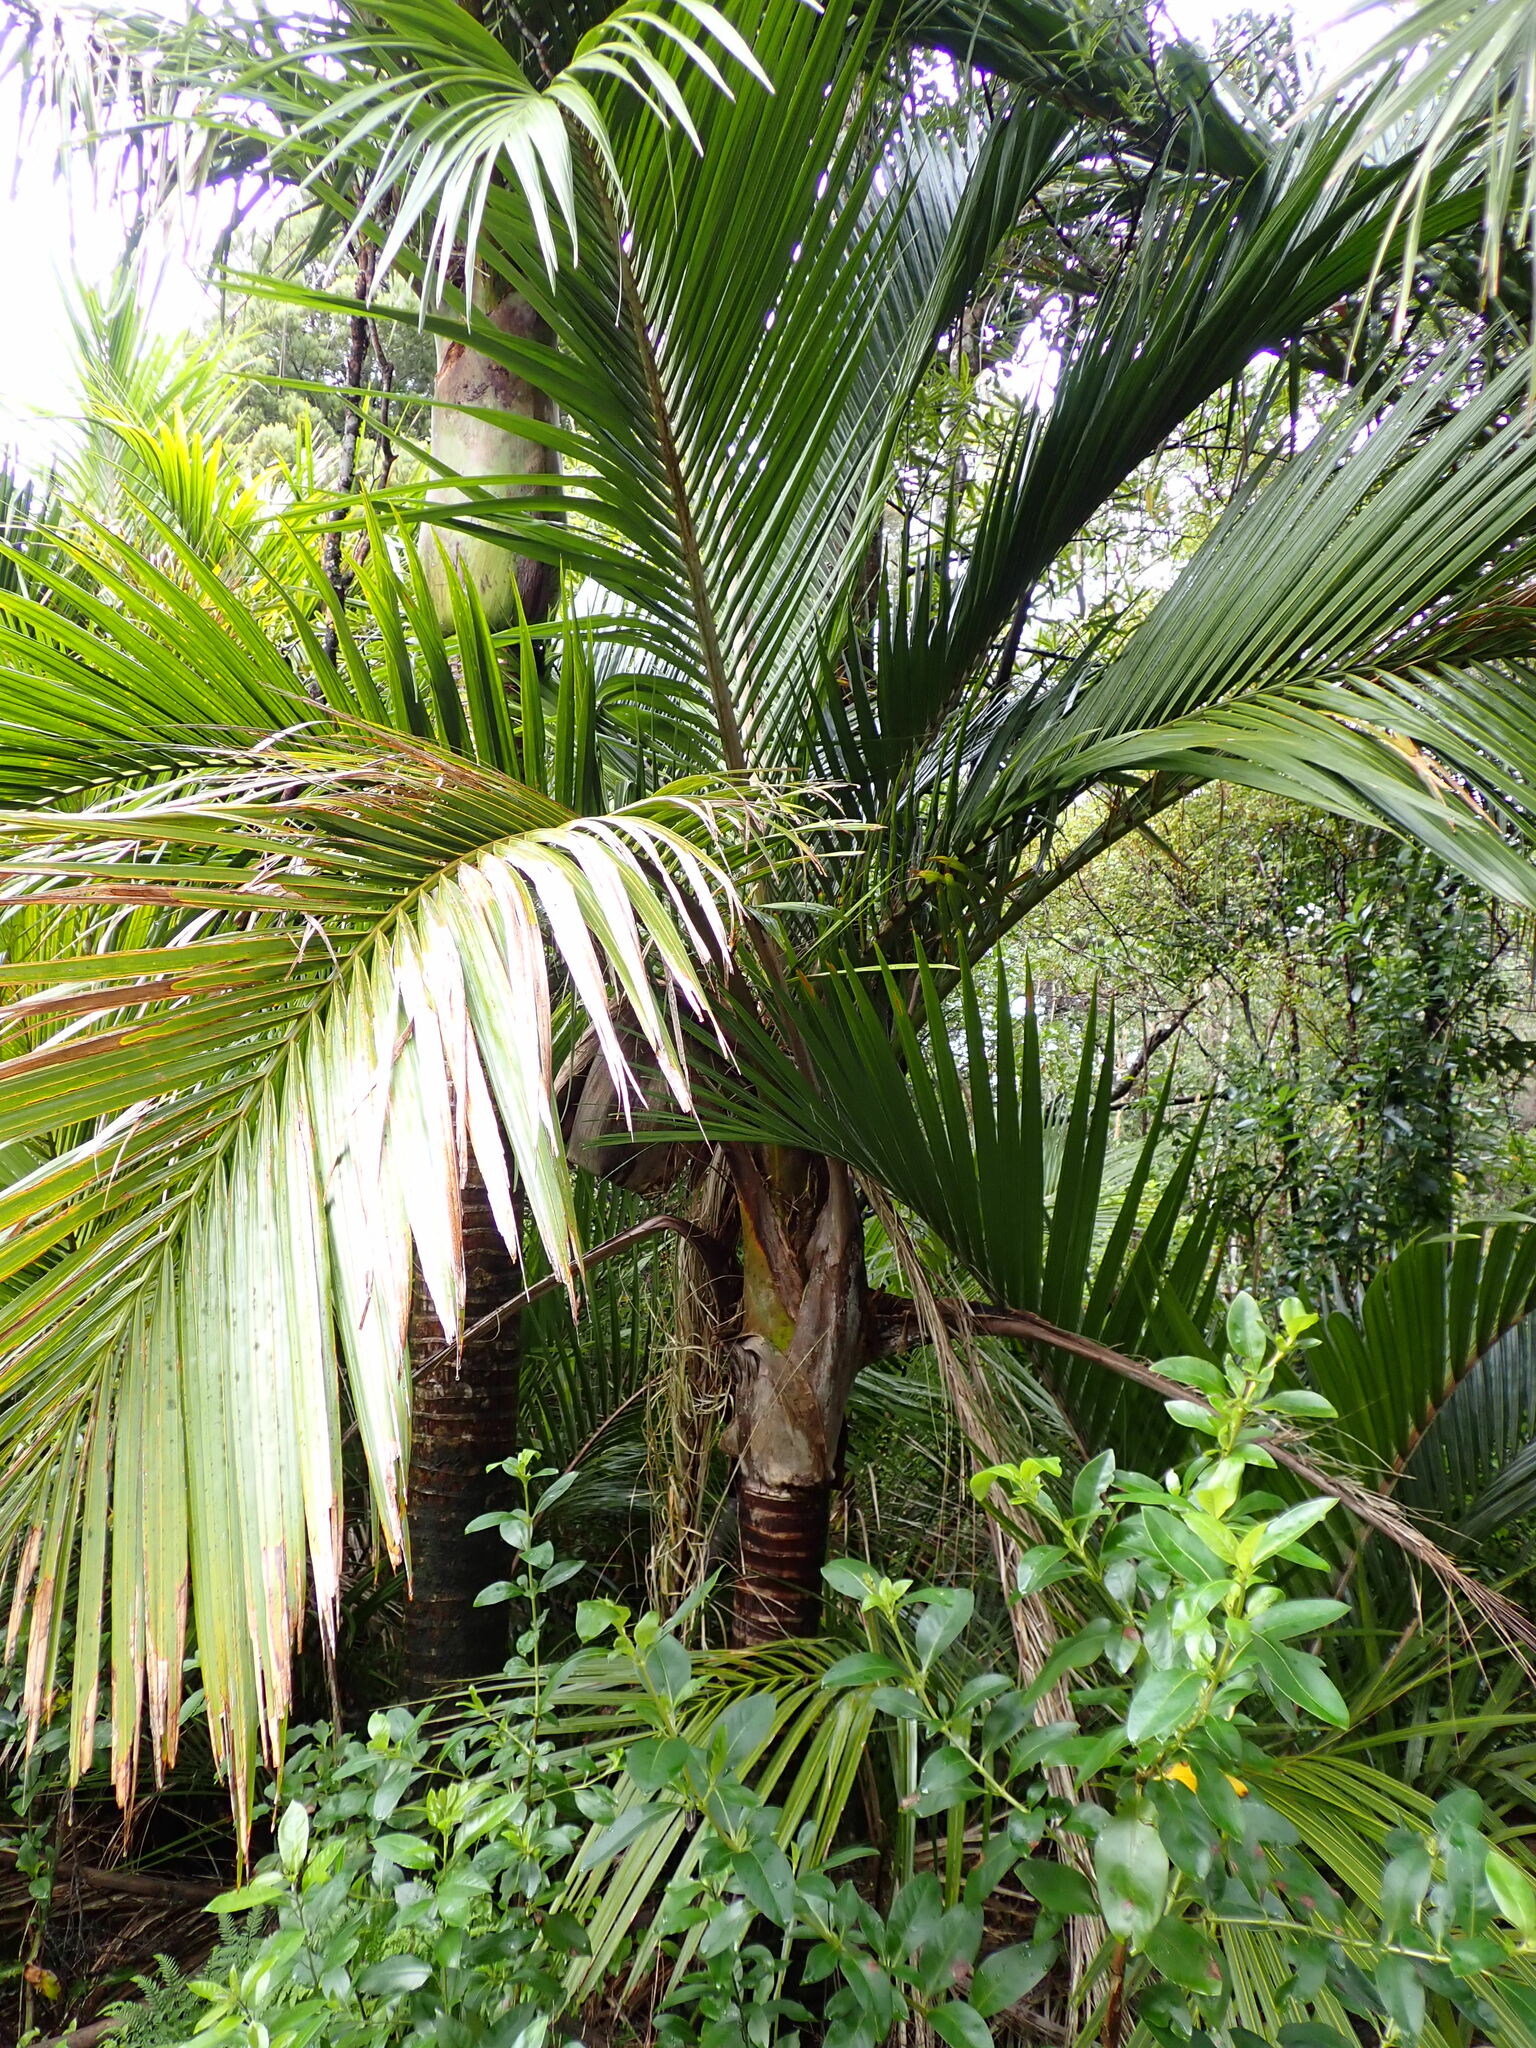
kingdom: Plantae
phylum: Tracheophyta
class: Liliopsida
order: Arecales
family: Arecaceae
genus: Rhopalostylis
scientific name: Rhopalostylis sapida
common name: Feather-duster palm
